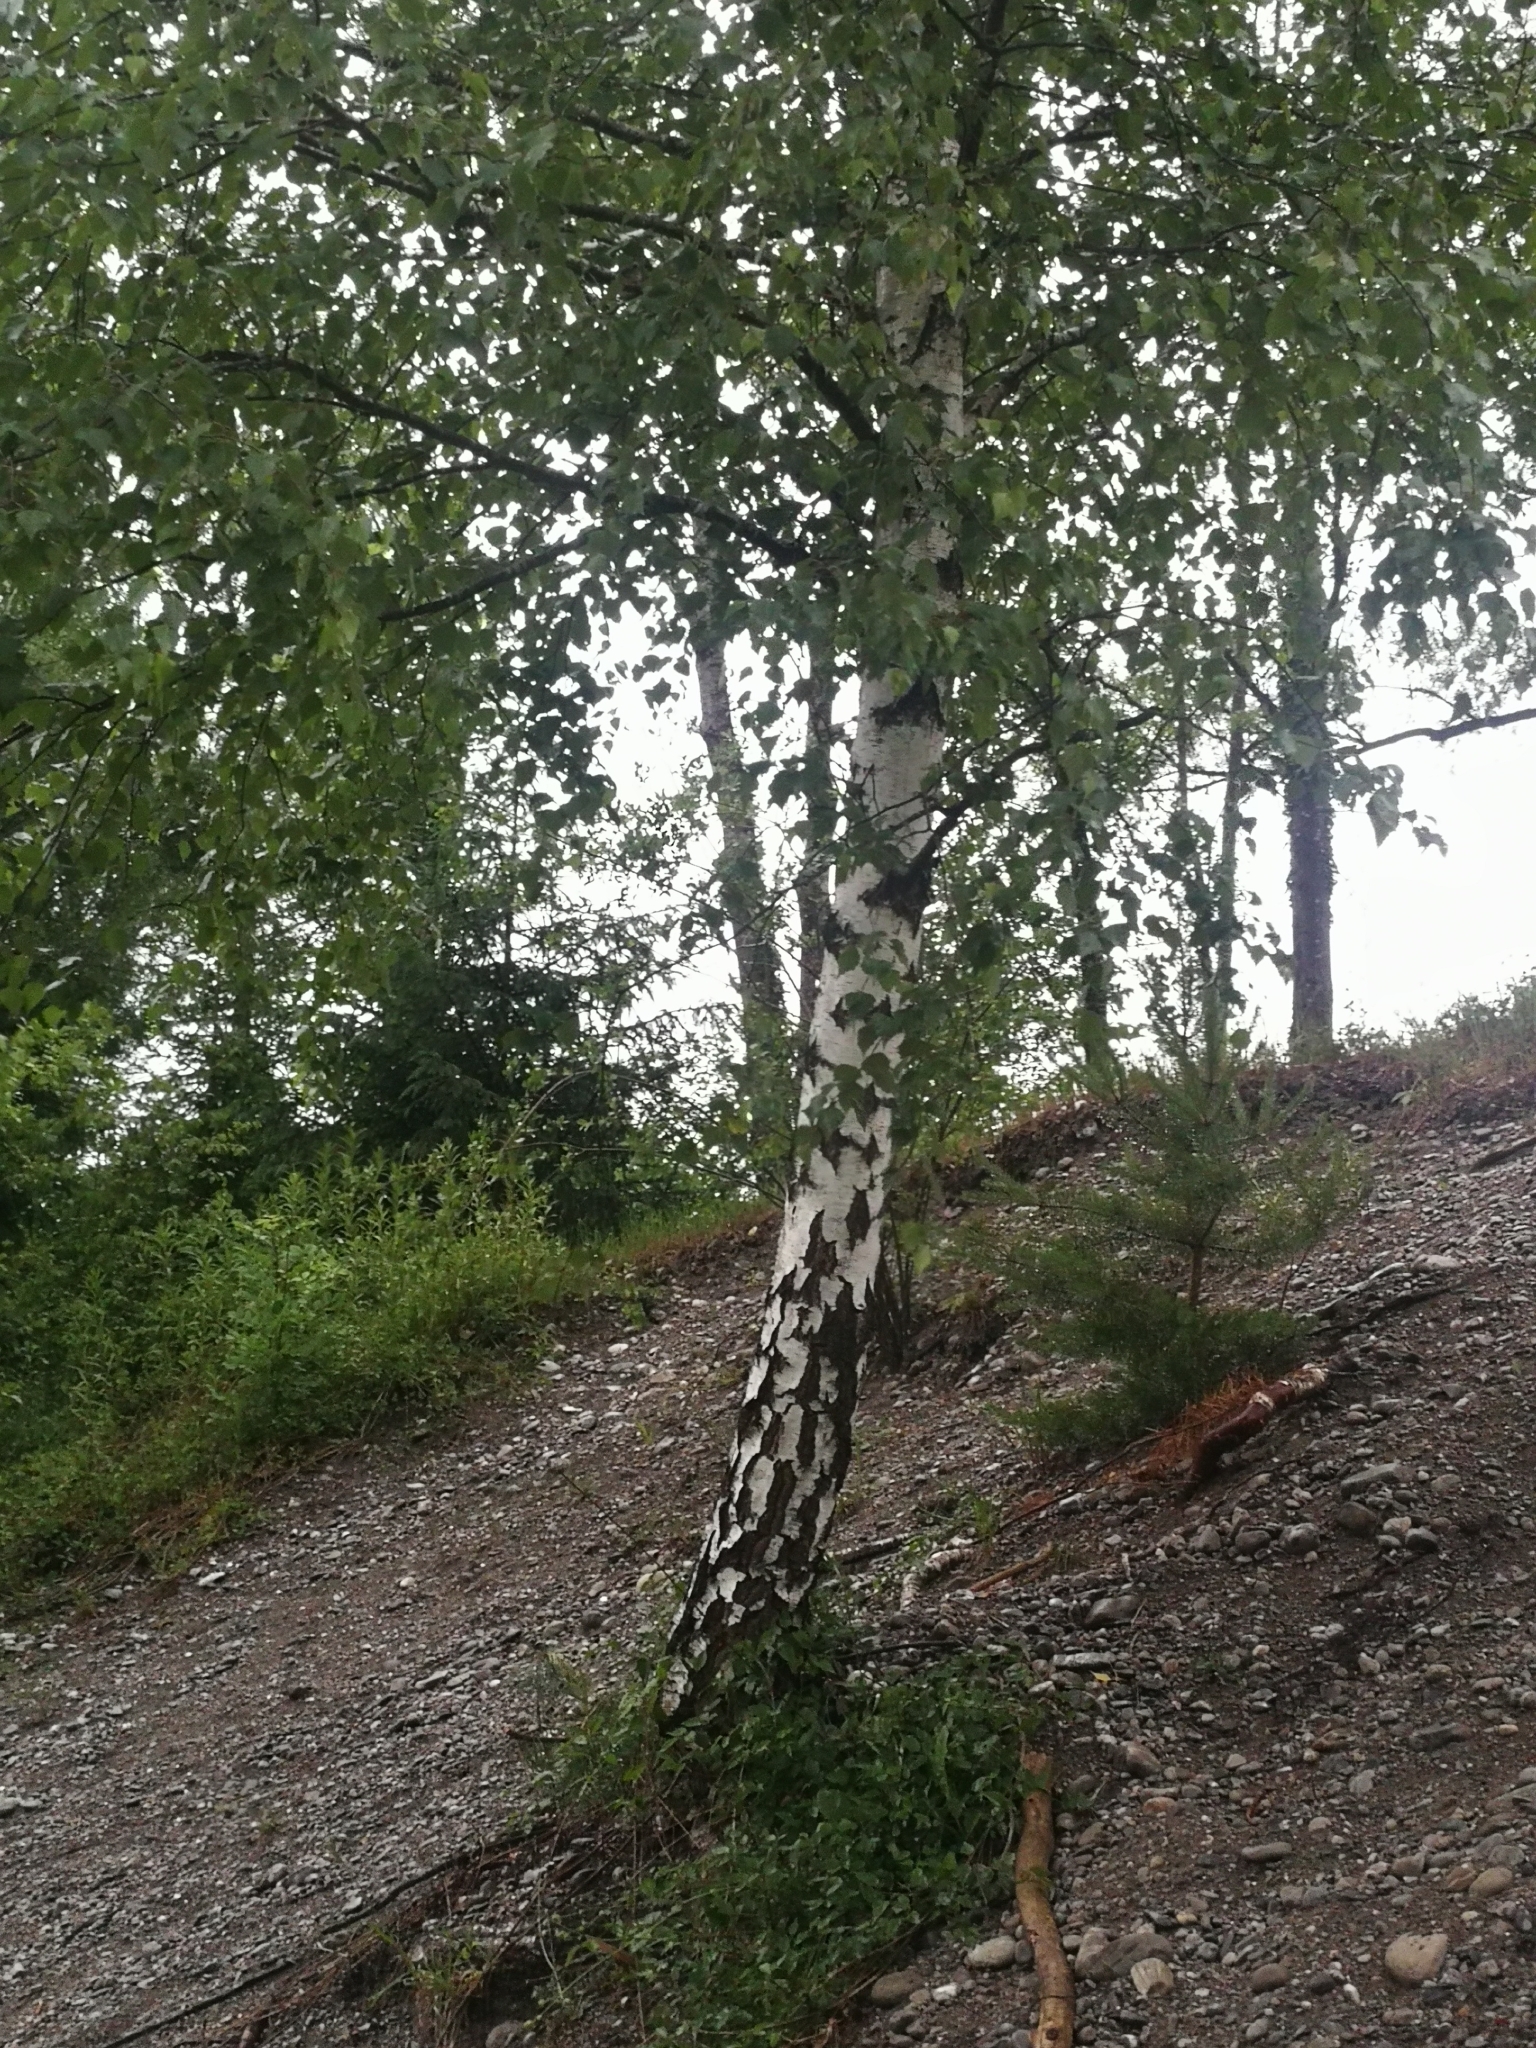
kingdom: Plantae
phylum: Tracheophyta
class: Magnoliopsida
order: Fagales
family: Betulaceae
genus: Betula
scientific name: Betula pendula
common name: Silver birch
